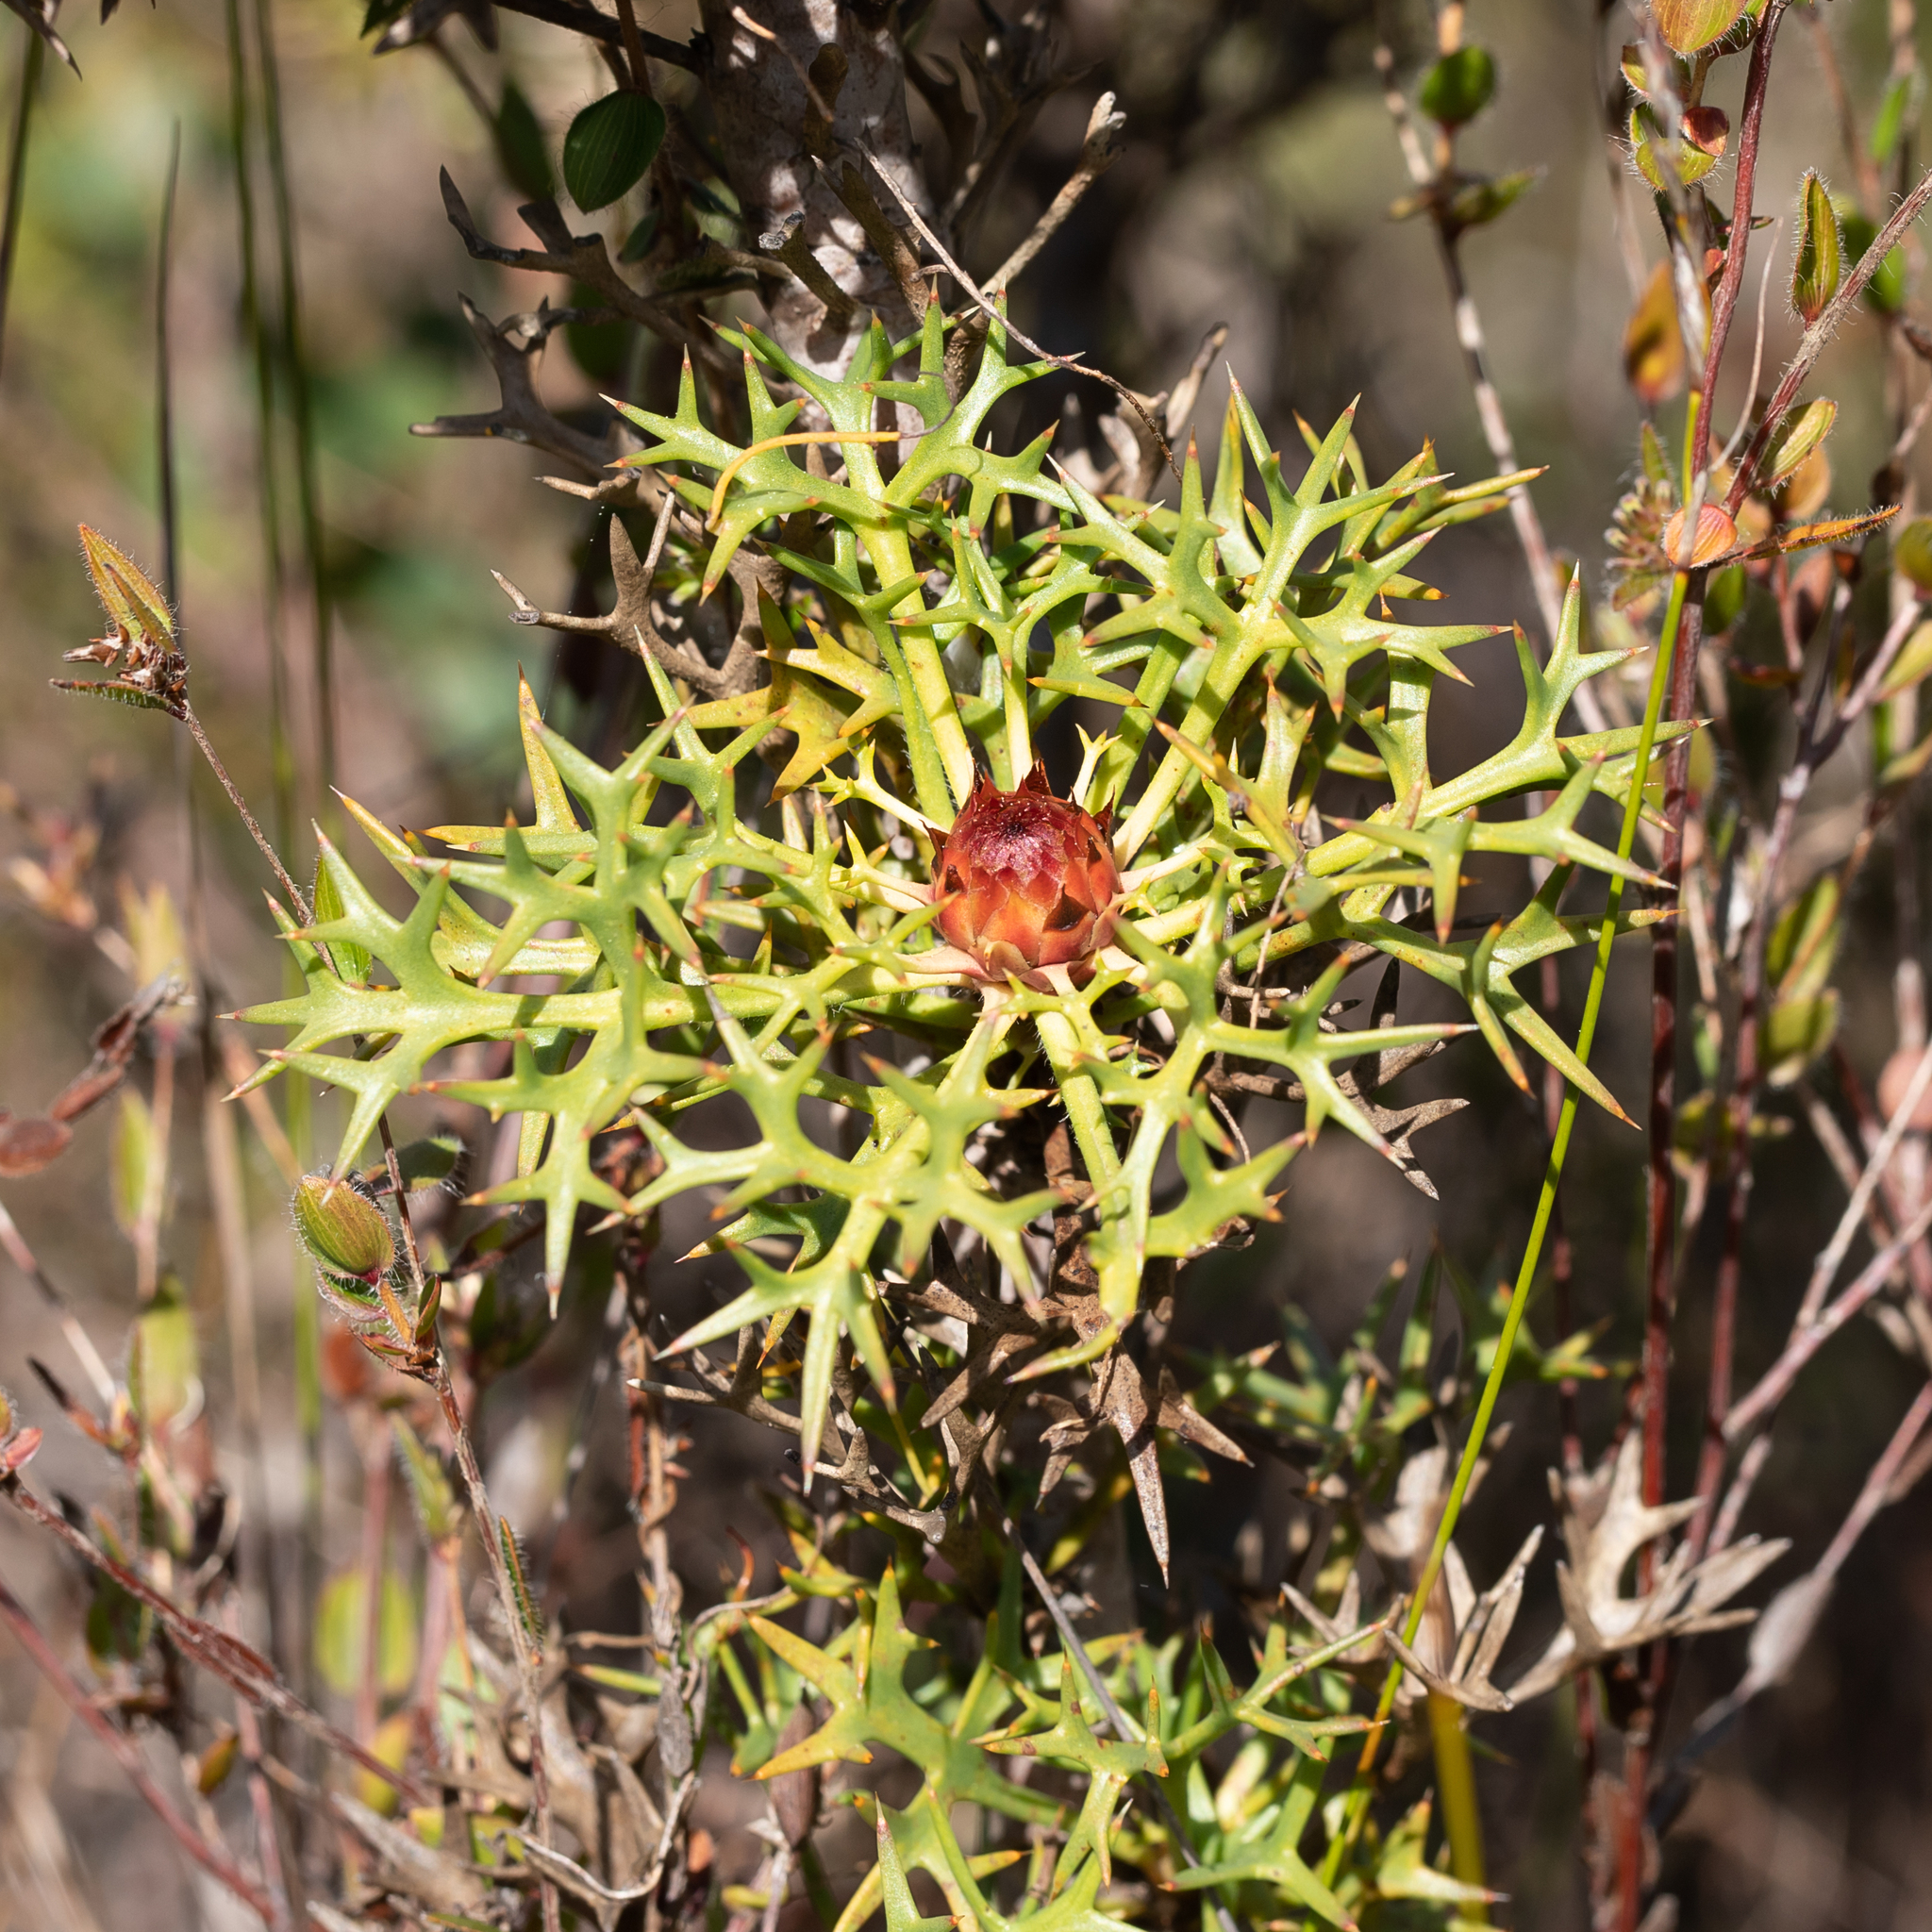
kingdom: Plantae
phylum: Tracheophyta
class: Magnoliopsida
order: Proteales
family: Proteaceae
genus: Isopogon
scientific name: Isopogon ceratophyllus
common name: Horny cone-bush
